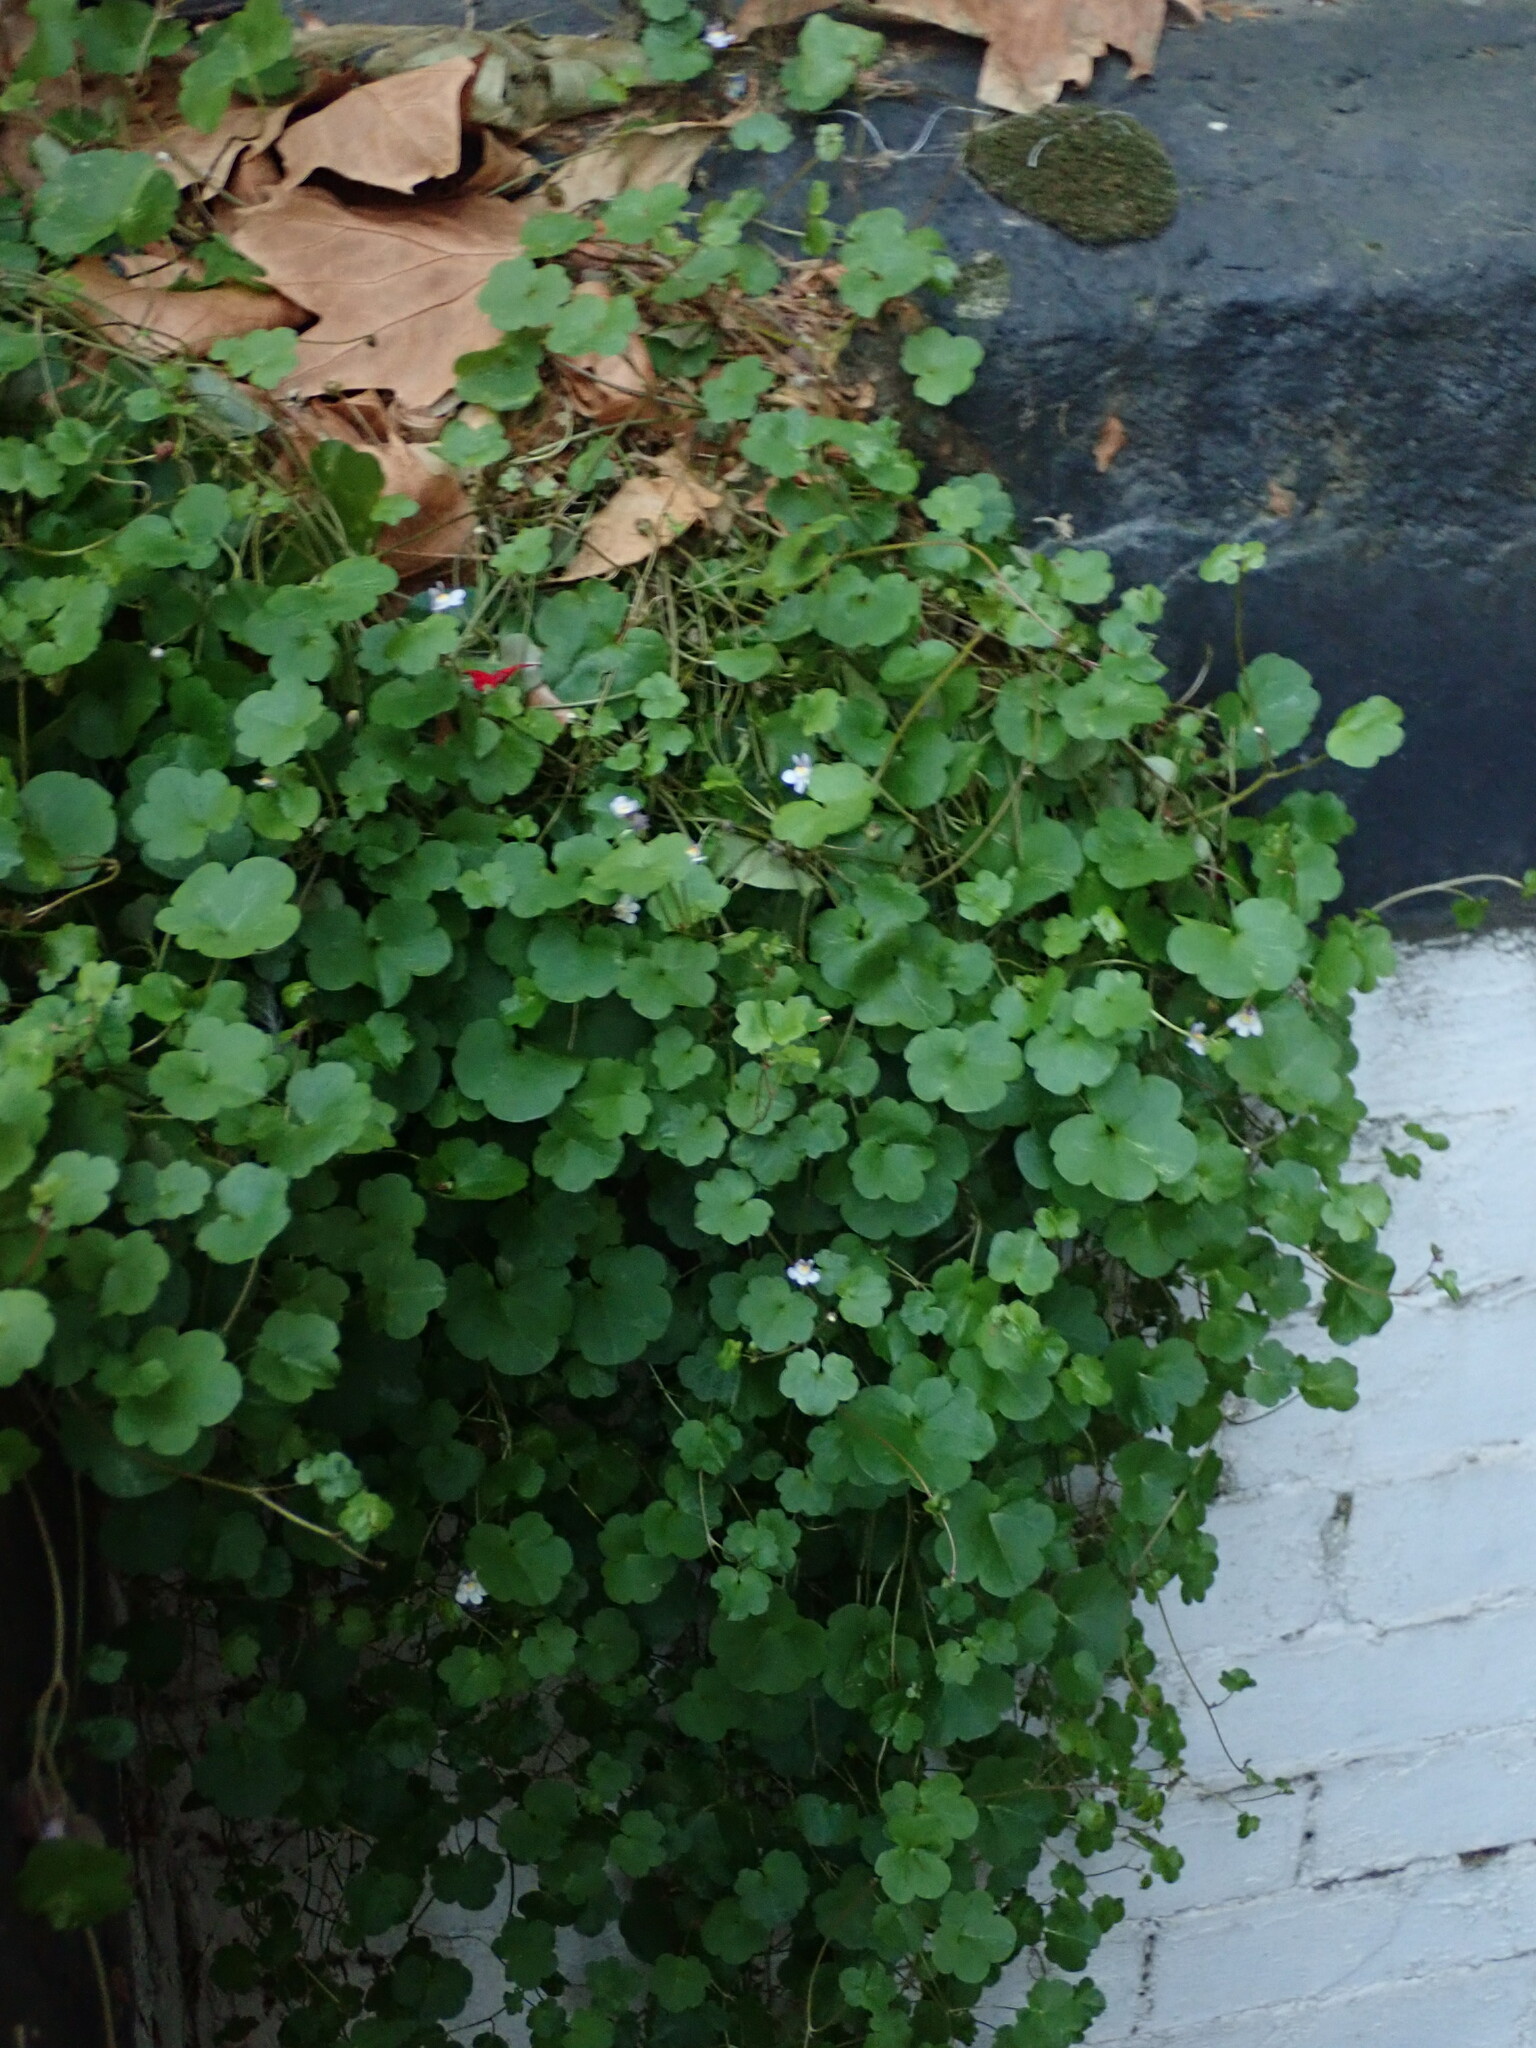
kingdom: Plantae
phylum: Tracheophyta
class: Magnoliopsida
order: Lamiales
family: Plantaginaceae
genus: Cymbalaria
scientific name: Cymbalaria muralis
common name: Ivy-leaved toadflax
